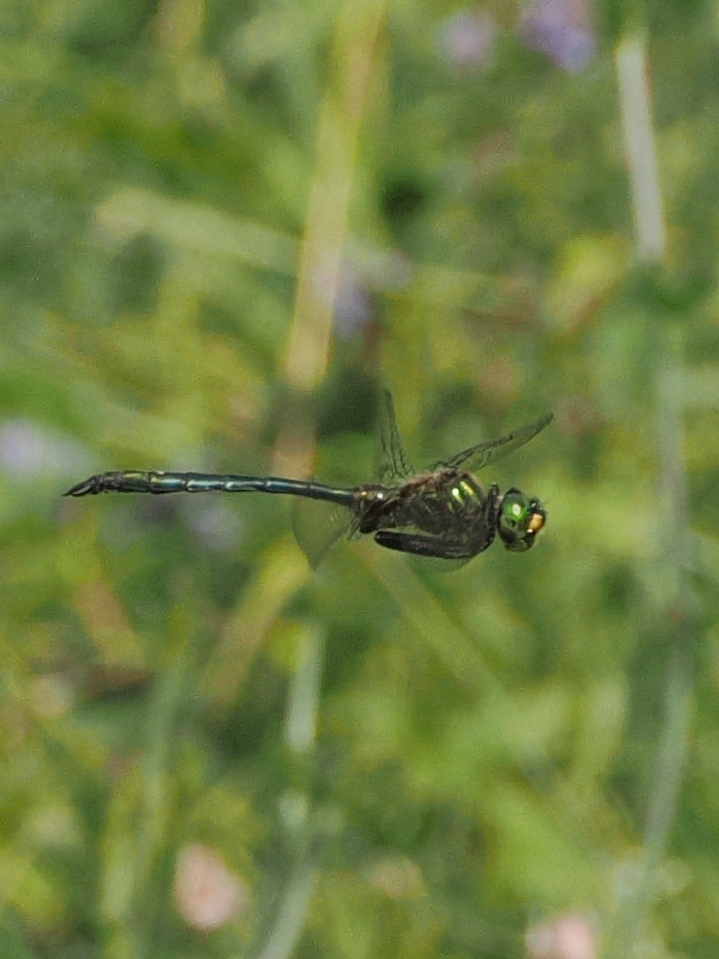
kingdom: Animalia
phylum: Arthropoda
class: Insecta
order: Odonata
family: Corduliidae
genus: Somatochlora
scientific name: Somatochlora meridionalis
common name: Balkan emerald
